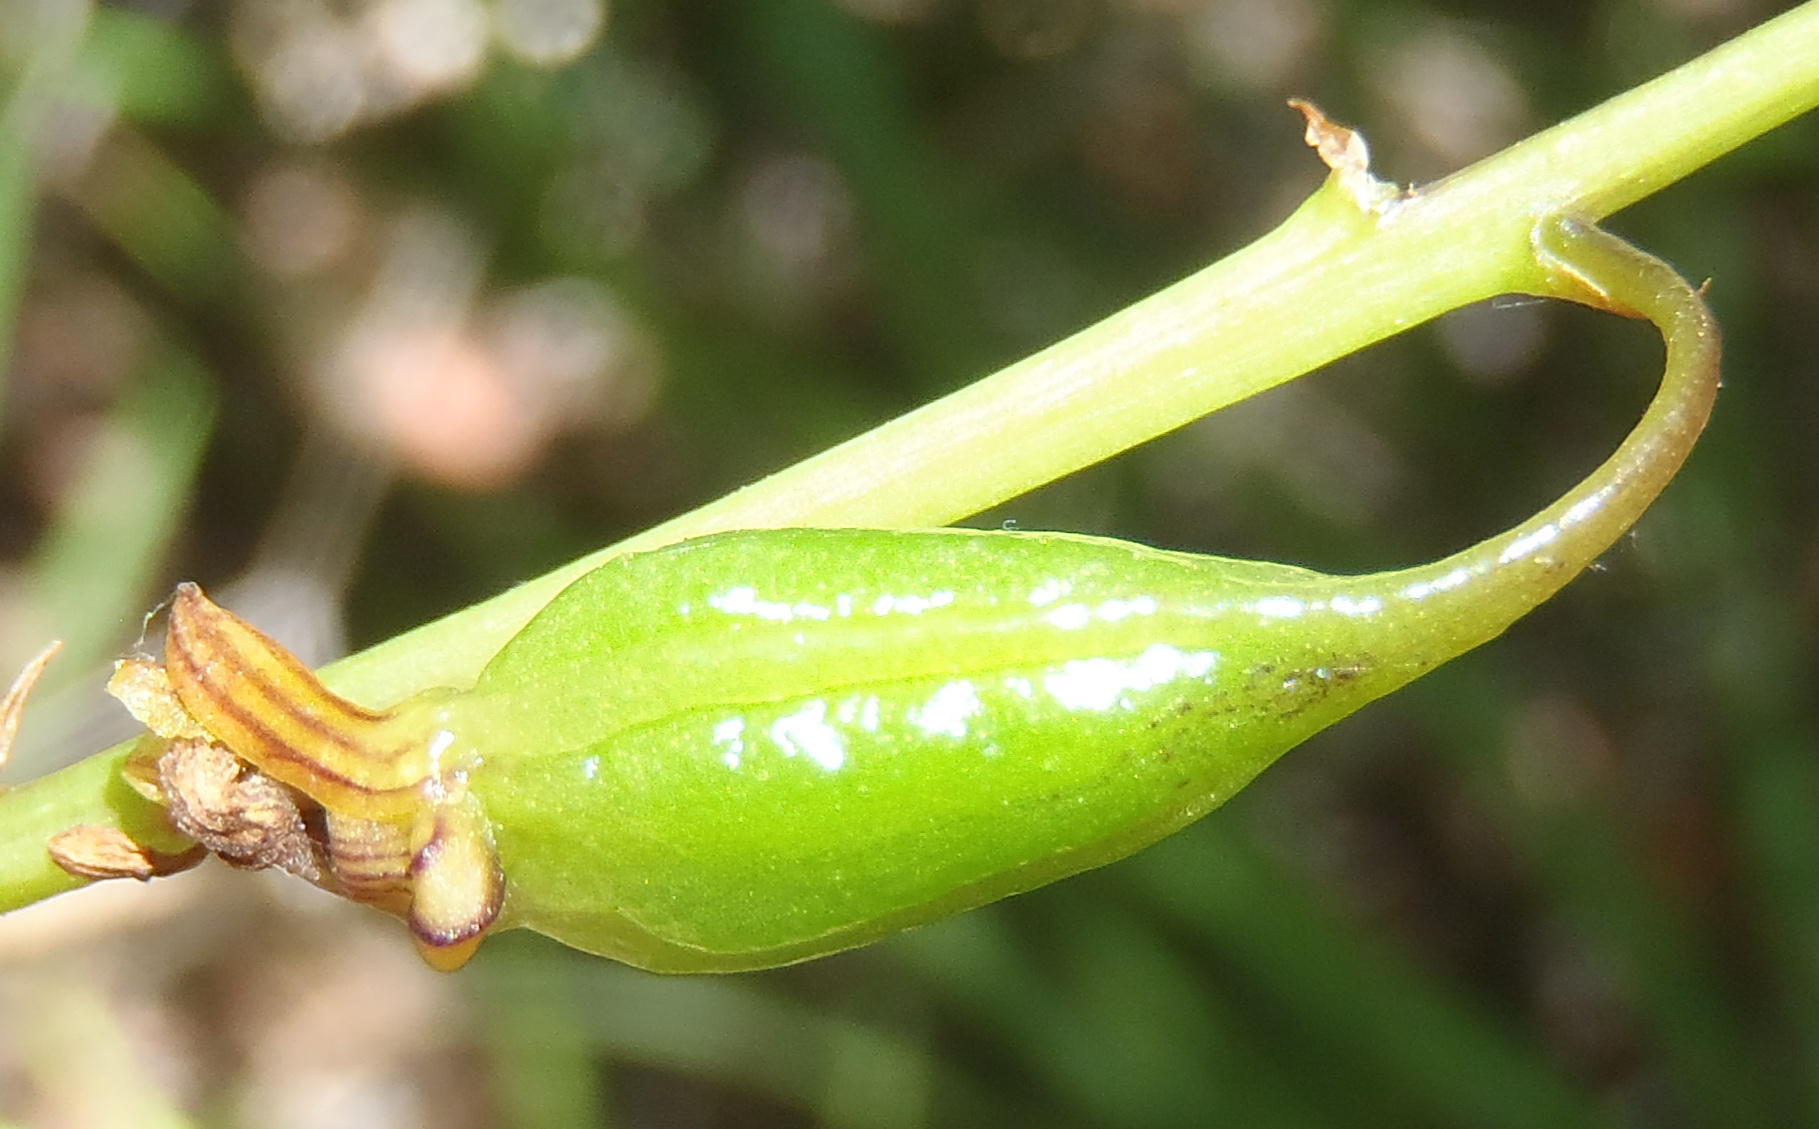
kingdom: Plantae
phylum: Tracheophyta
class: Liliopsida
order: Asparagales
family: Orchidaceae
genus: Eulophia
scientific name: Eulophia cochlearis
